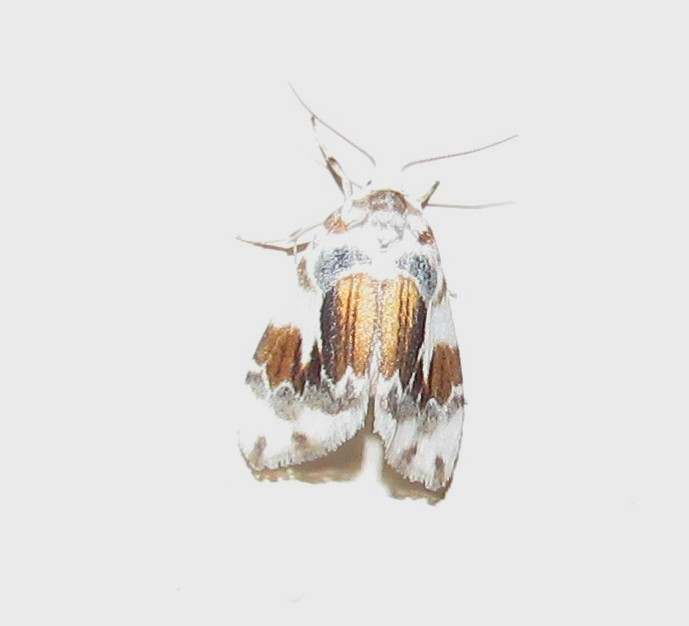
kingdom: Animalia
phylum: Arthropoda
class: Insecta
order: Lepidoptera
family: Erebidae
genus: Clemensia
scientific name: Clemensia marmorata
